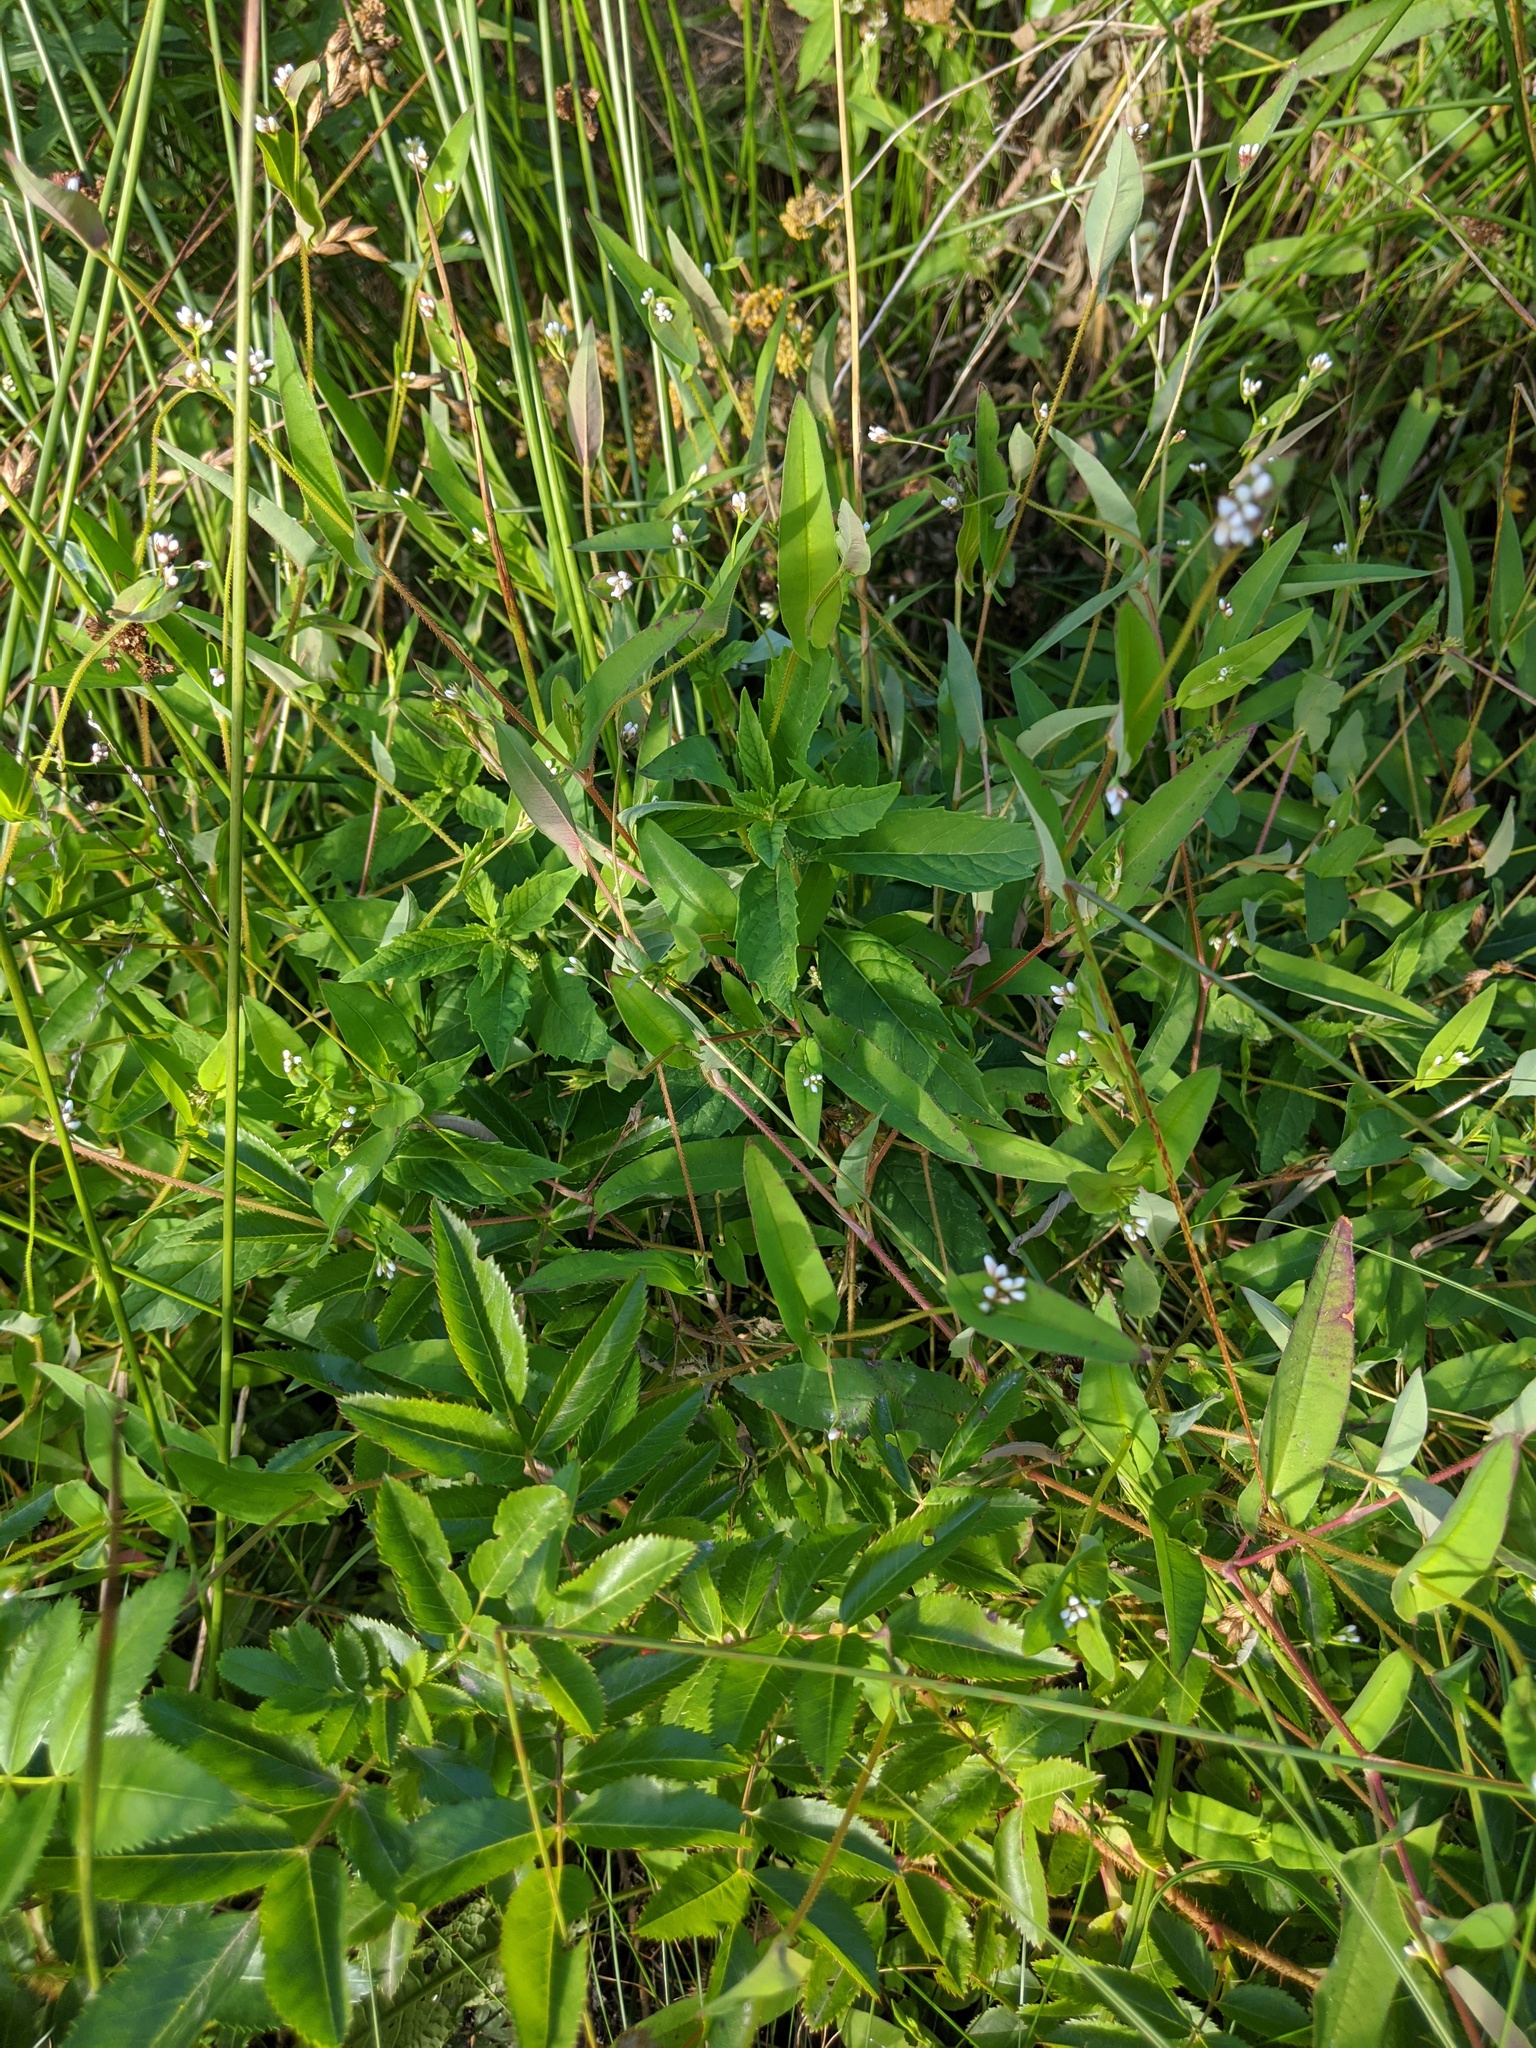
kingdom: Plantae
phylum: Tracheophyta
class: Magnoliopsida
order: Caryophyllales
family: Polygonaceae
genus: Persicaria
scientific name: Persicaria sagittata
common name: American tearthumb
